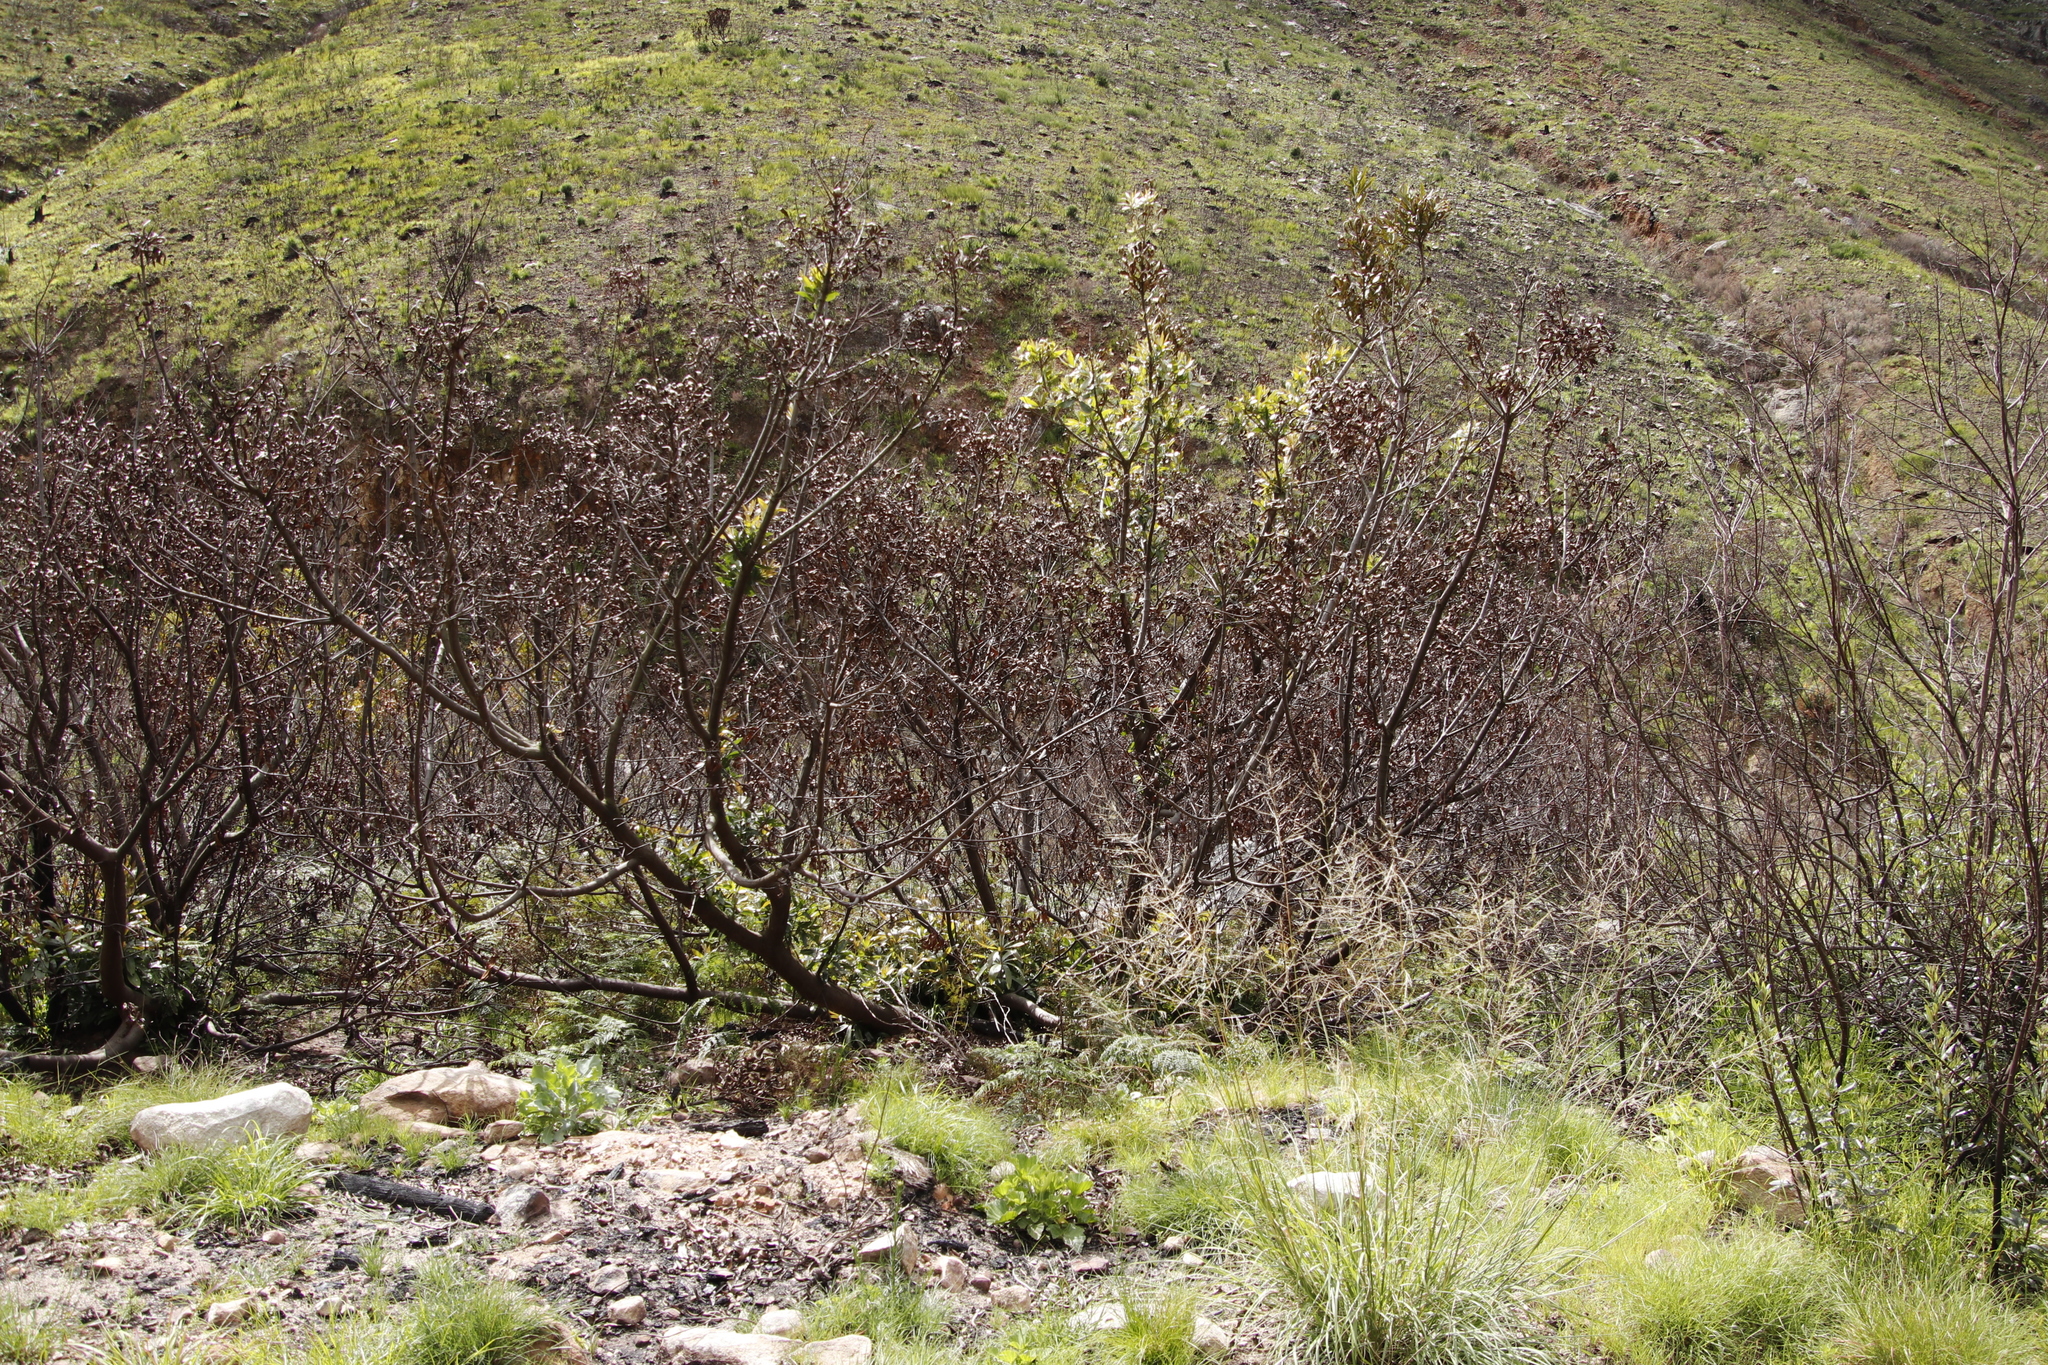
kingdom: Plantae
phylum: Tracheophyta
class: Magnoliopsida
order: Proteales
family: Proteaceae
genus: Protea
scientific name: Protea nitida
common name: Tree protea
